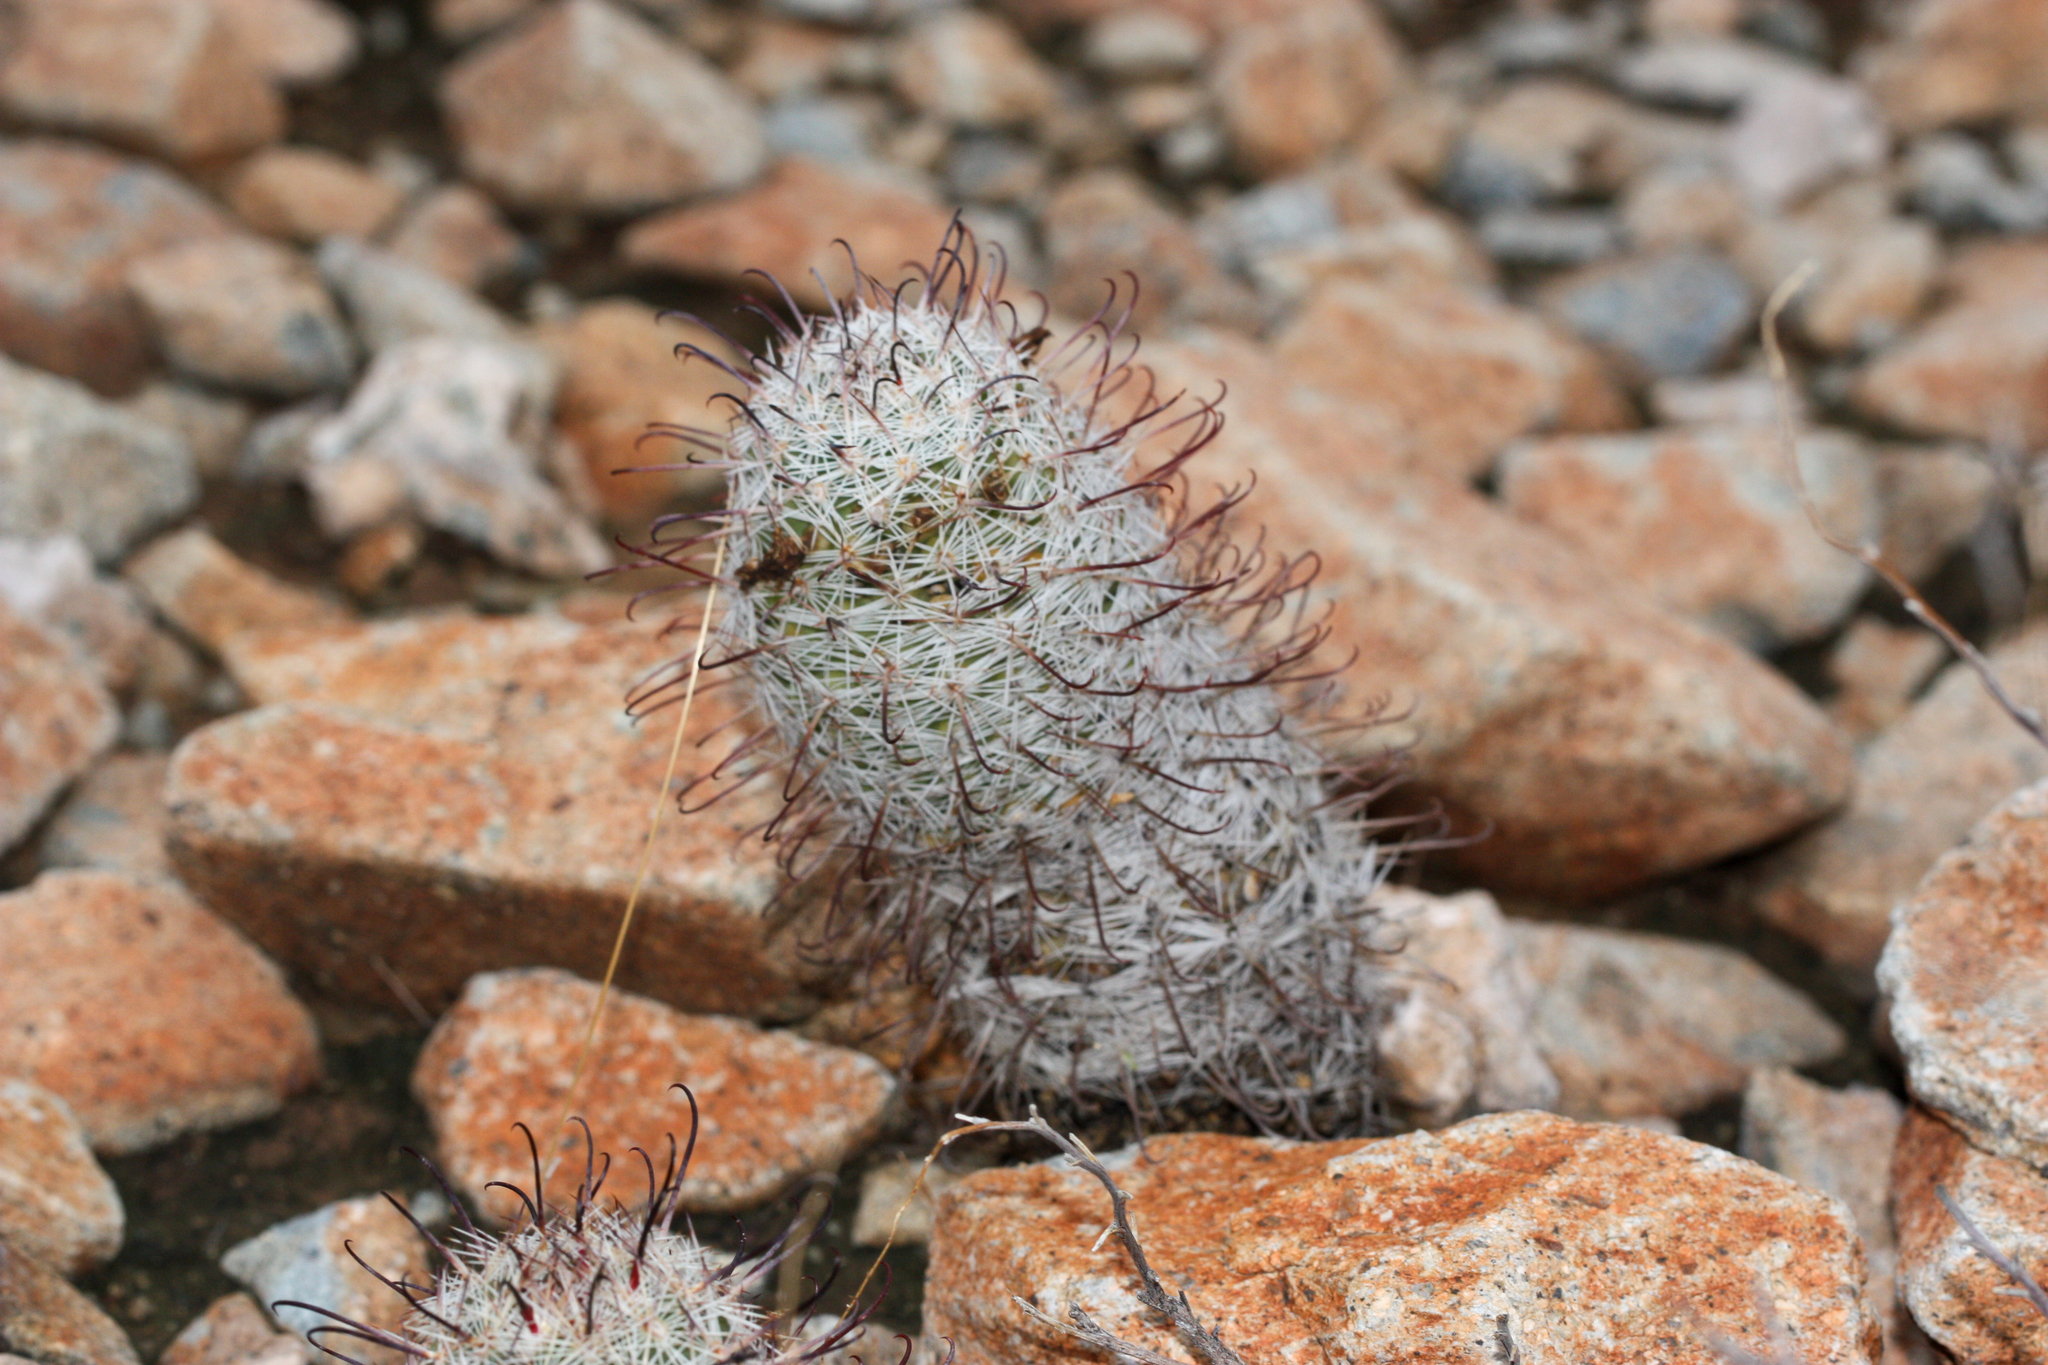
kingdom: Plantae
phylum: Tracheophyta
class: Magnoliopsida
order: Caryophyllales
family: Cactaceae
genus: Cochemiea
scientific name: Cochemiea grahamii
